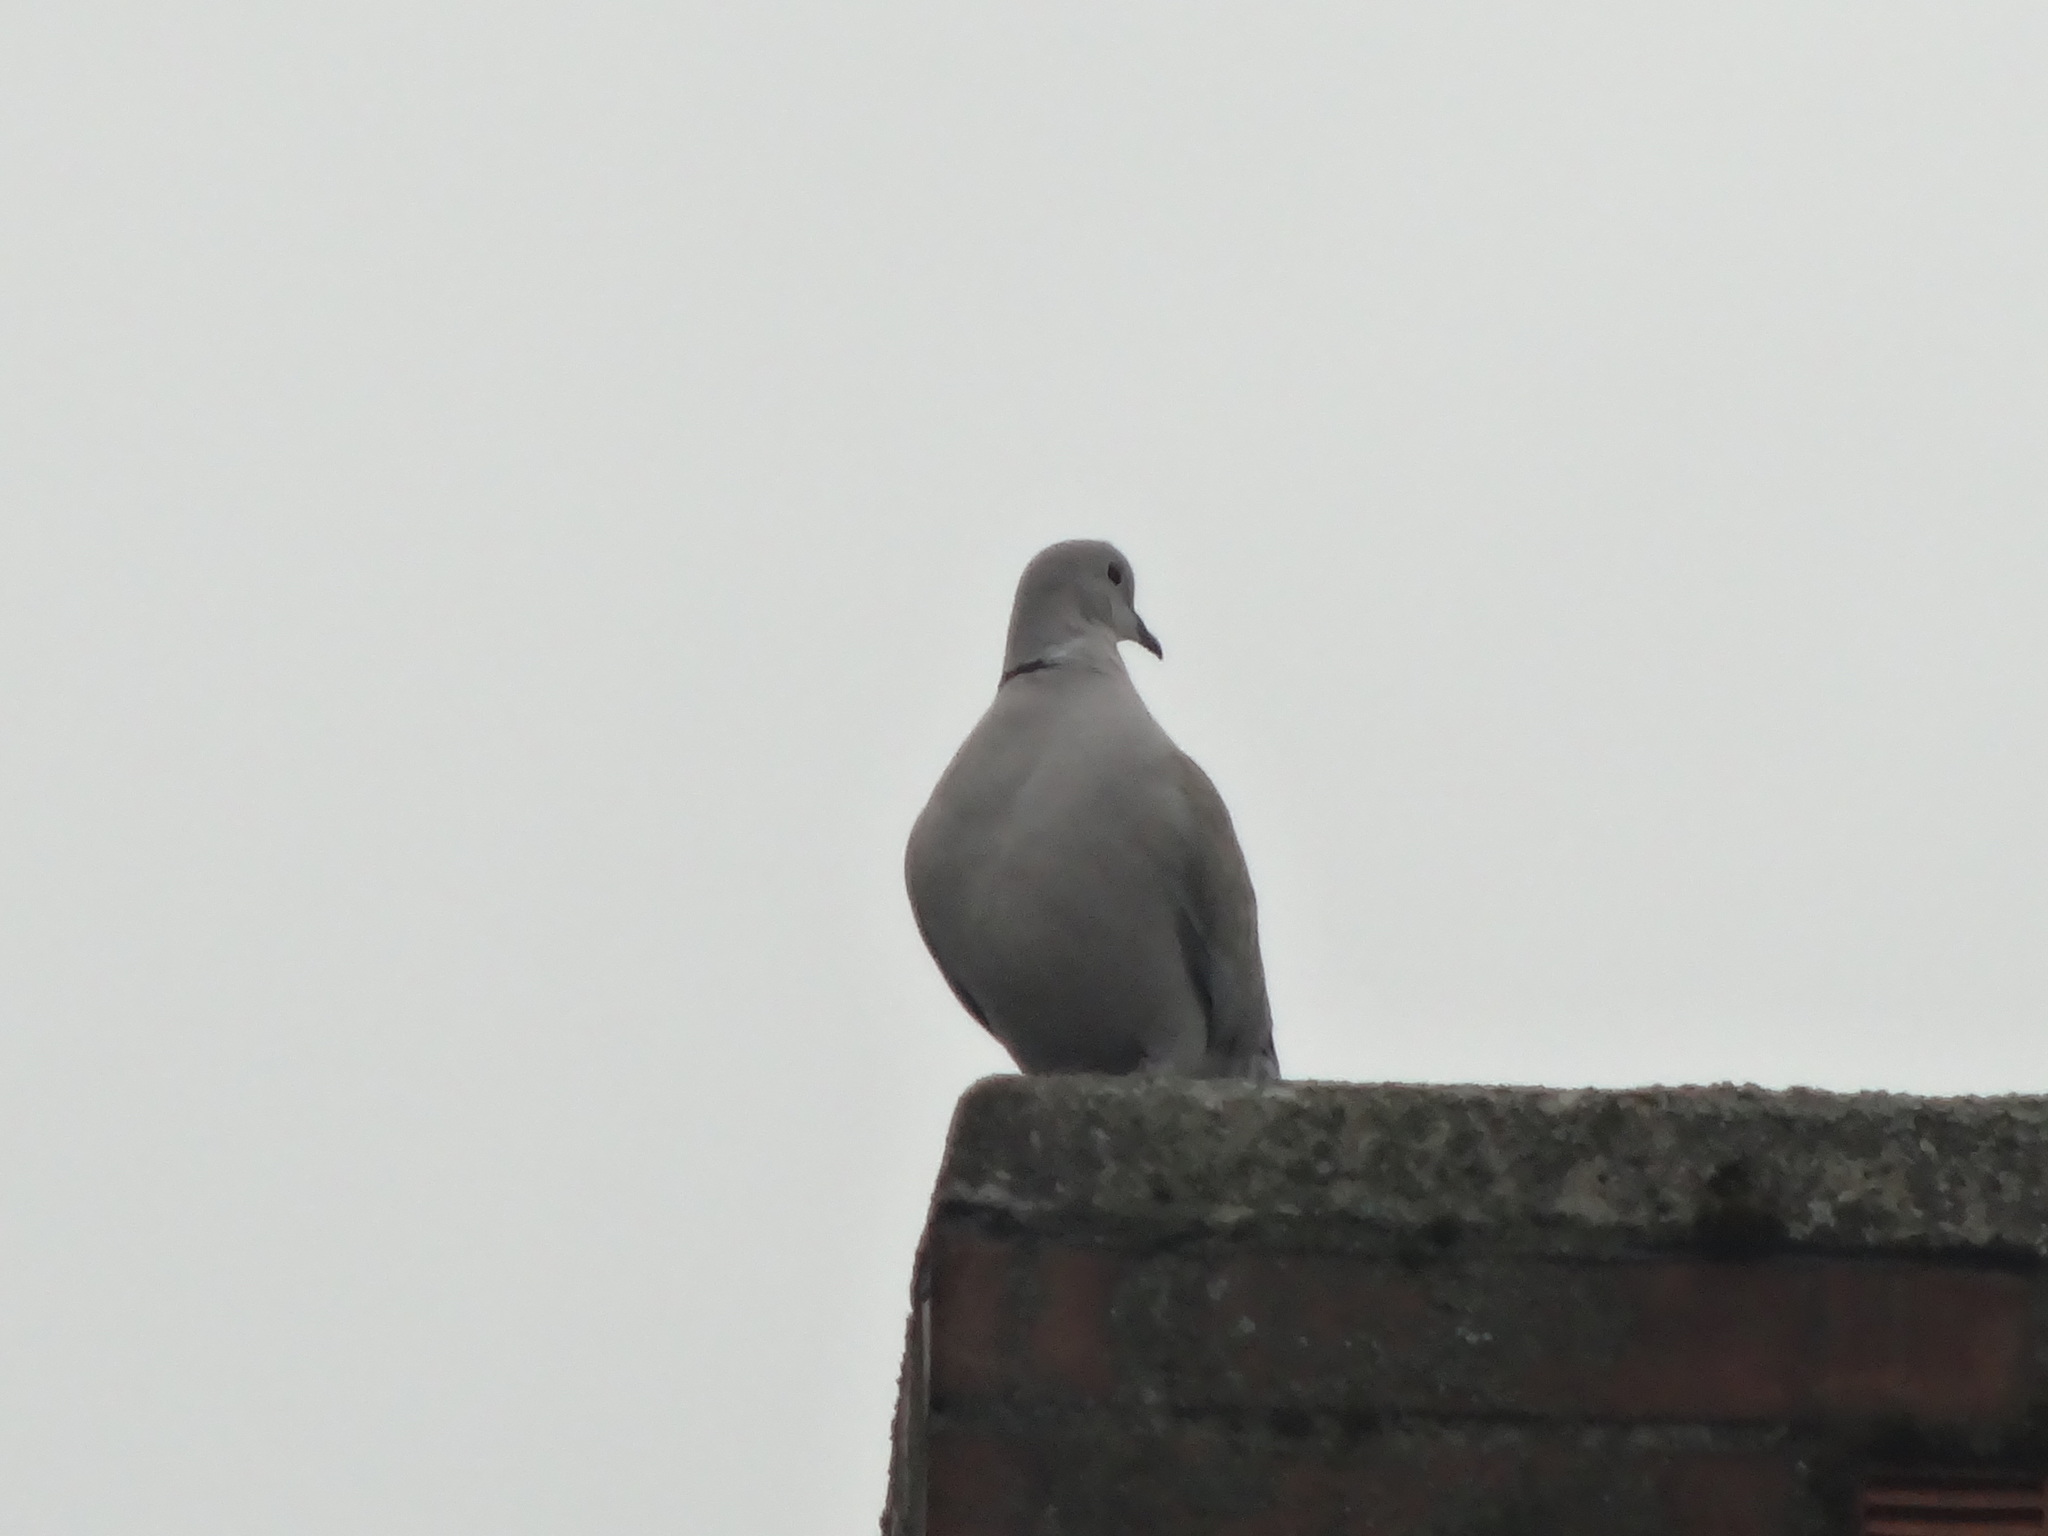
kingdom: Animalia
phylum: Chordata
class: Aves
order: Columbiformes
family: Columbidae
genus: Streptopelia
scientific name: Streptopelia decaocto
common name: Eurasian collared dove
